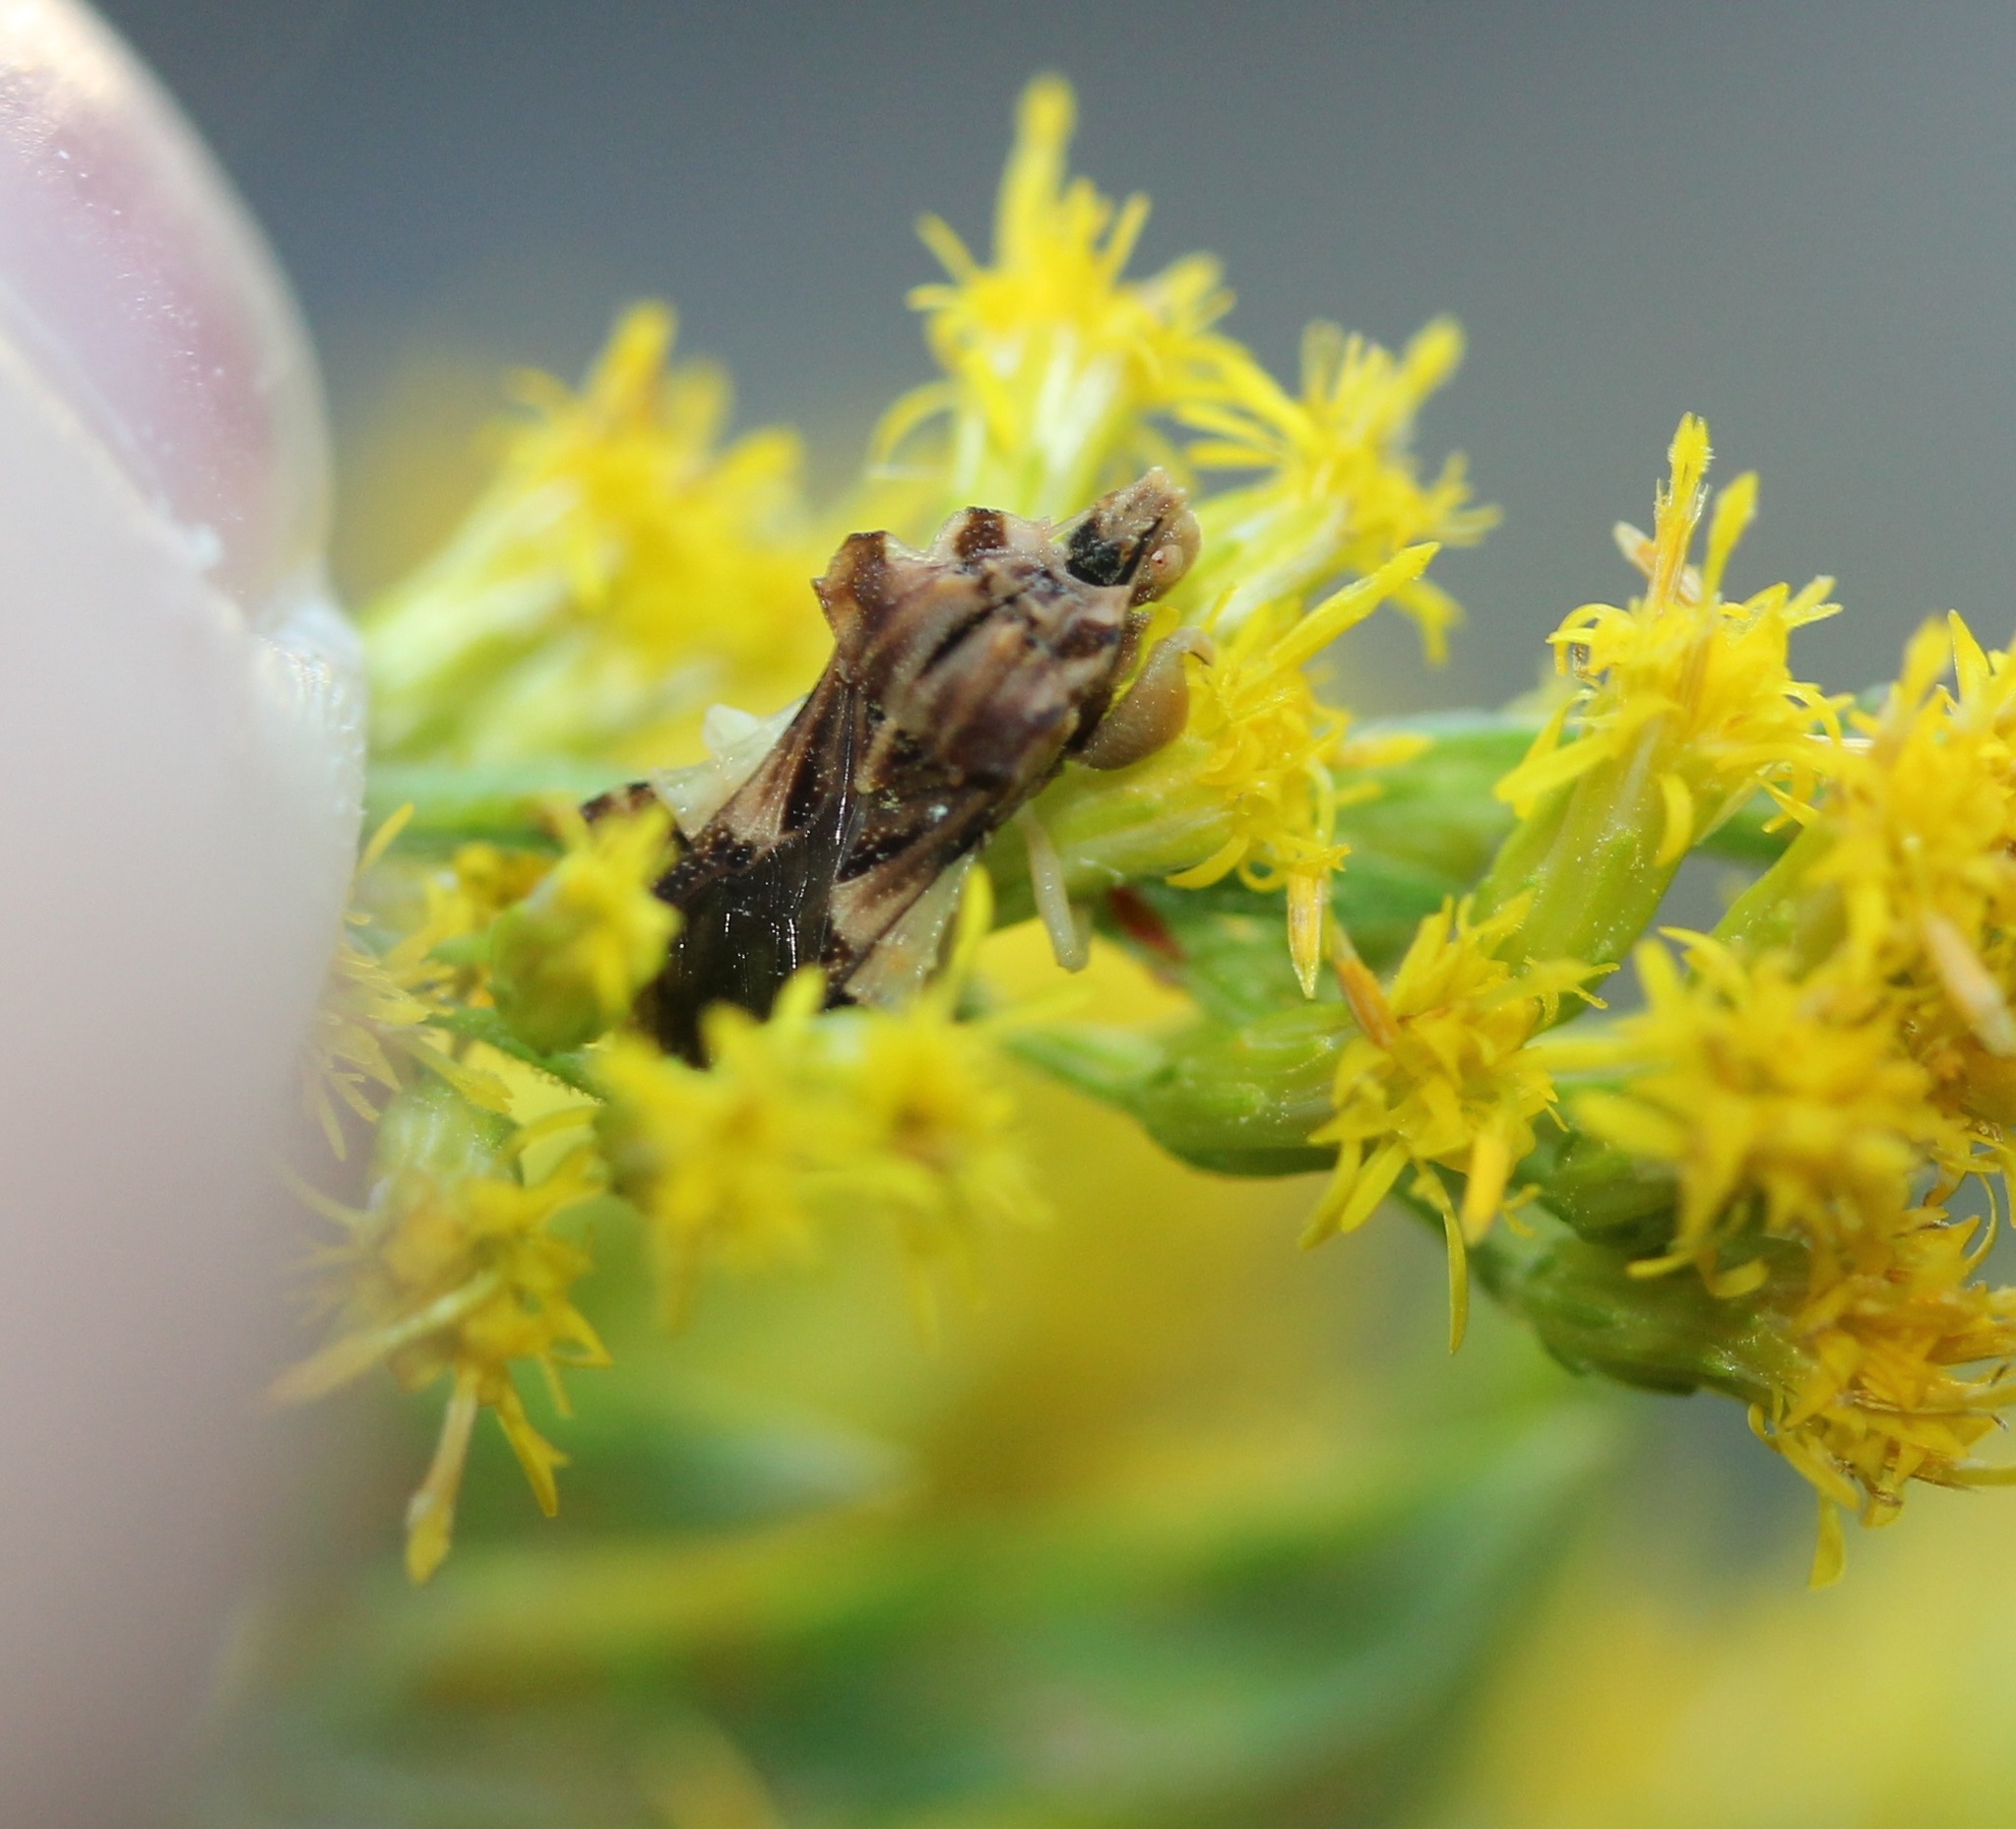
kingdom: Animalia
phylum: Arthropoda
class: Insecta
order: Hemiptera
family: Reduviidae
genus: Phymata
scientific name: Phymata fasciata
